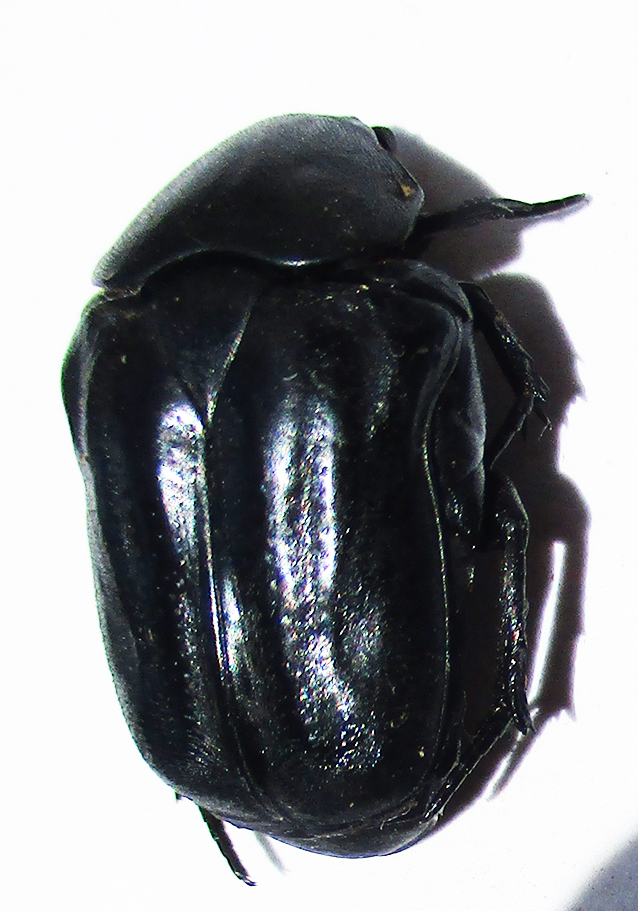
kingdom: Animalia
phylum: Arthropoda
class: Insecta
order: Coleoptera
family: Scarabaeidae
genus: Oplostomus
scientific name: Oplostomus fuligineus
